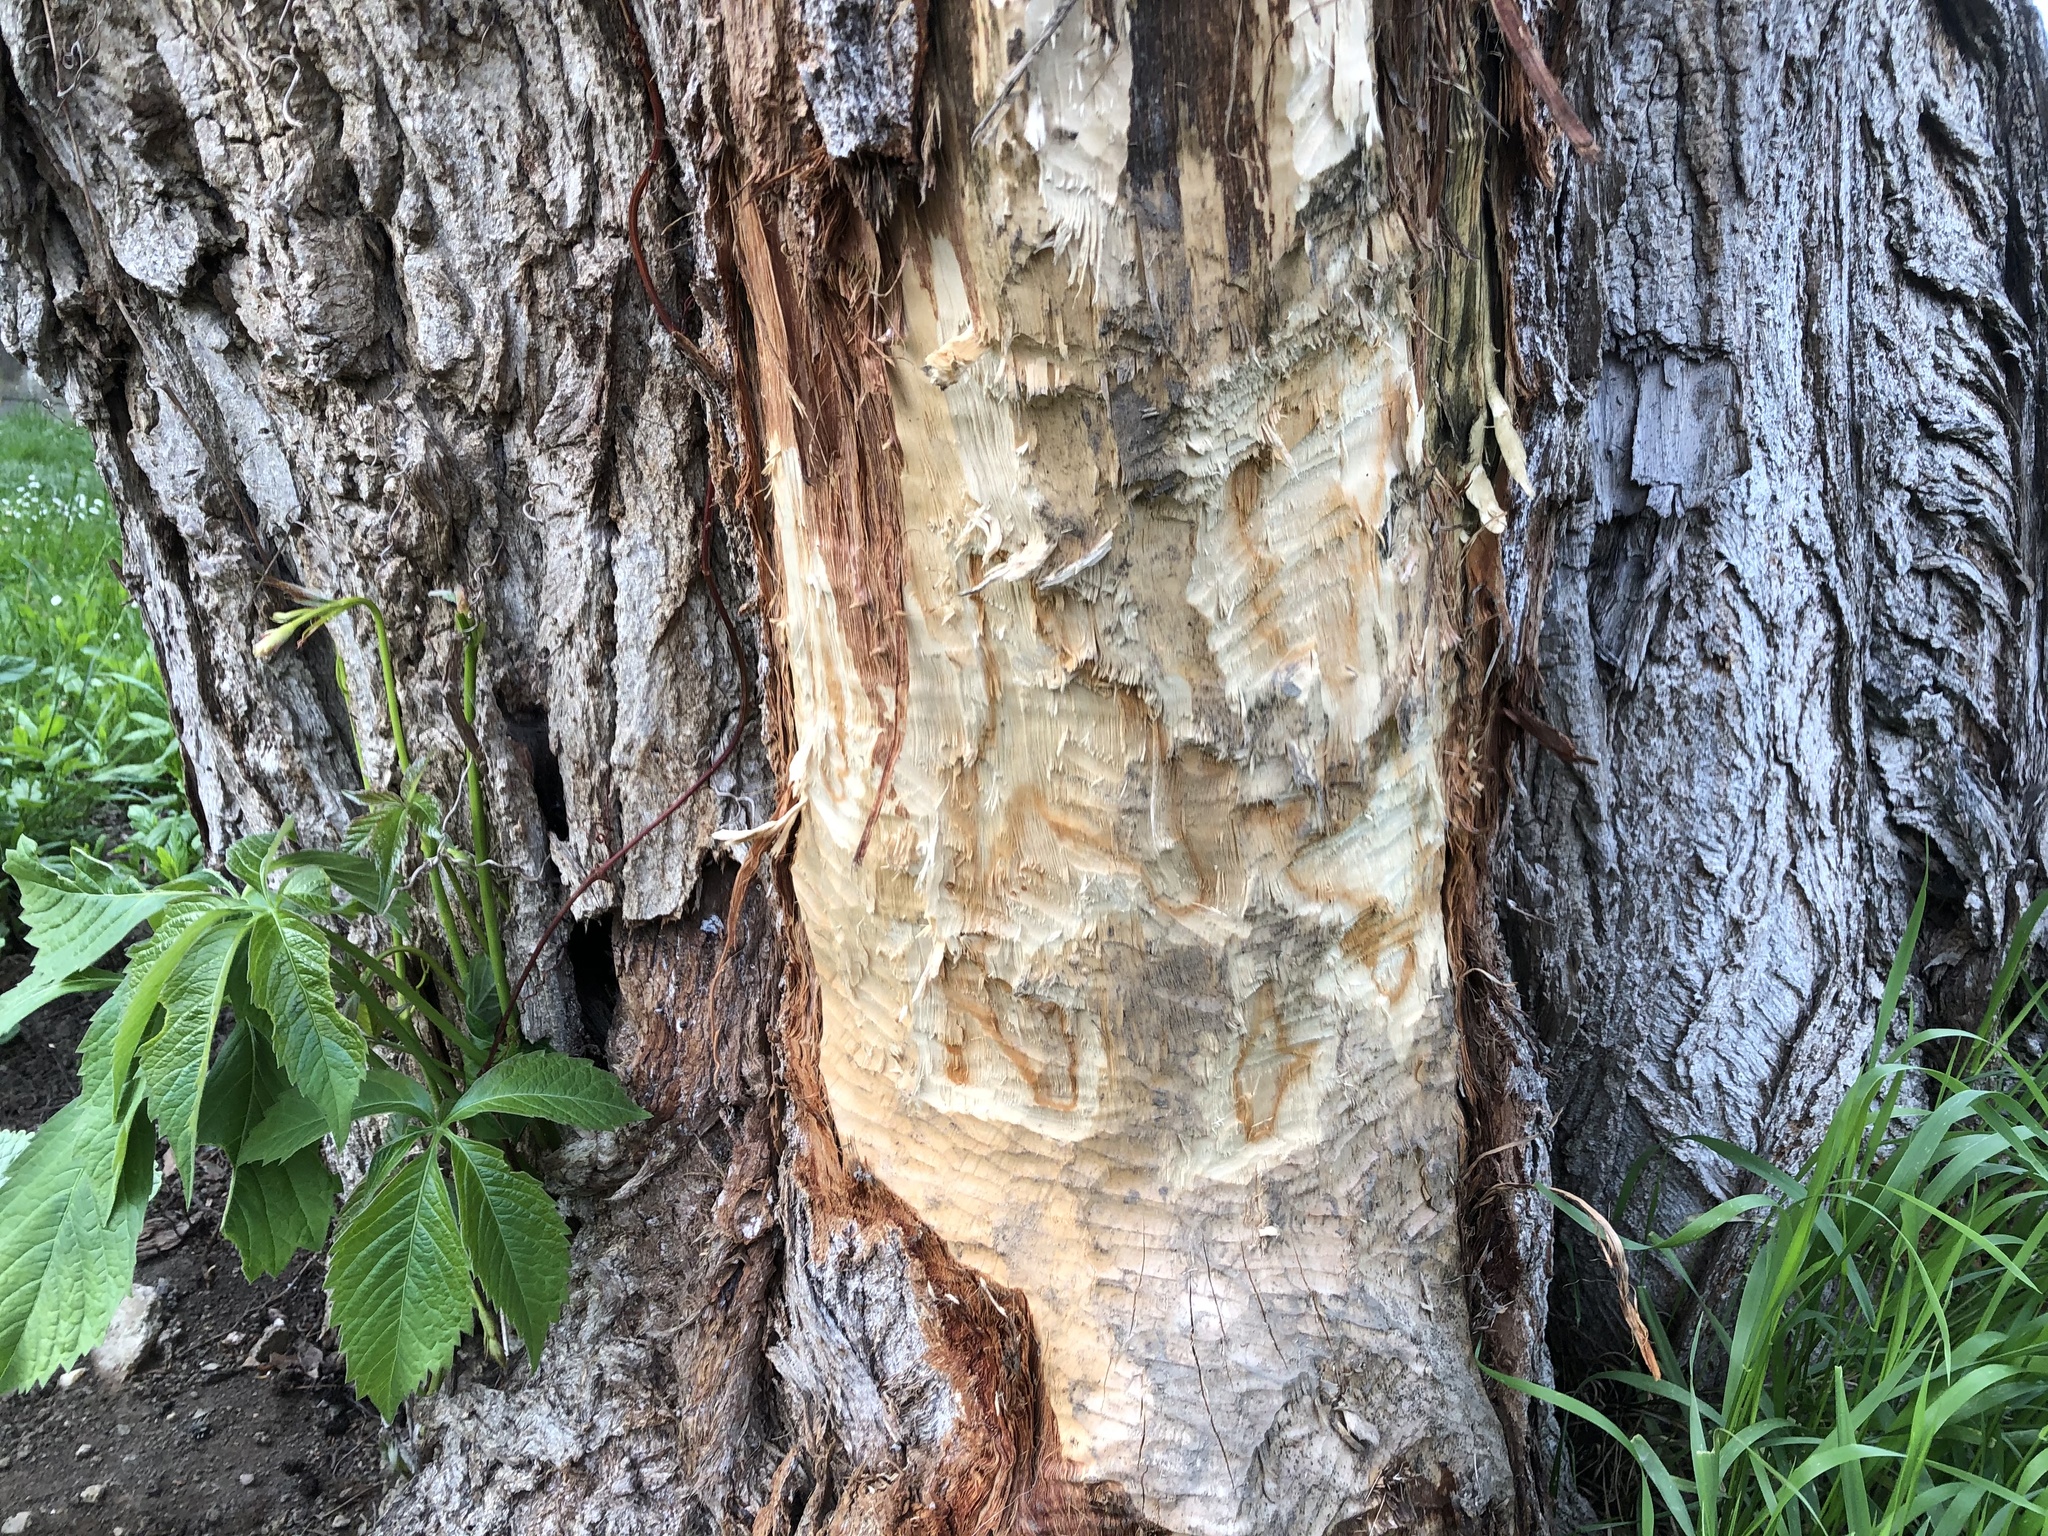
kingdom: Animalia
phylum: Chordata
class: Mammalia
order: Rodentia
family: Castoridae
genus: Castor
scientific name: Castor fiber
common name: Eurasian beaver
